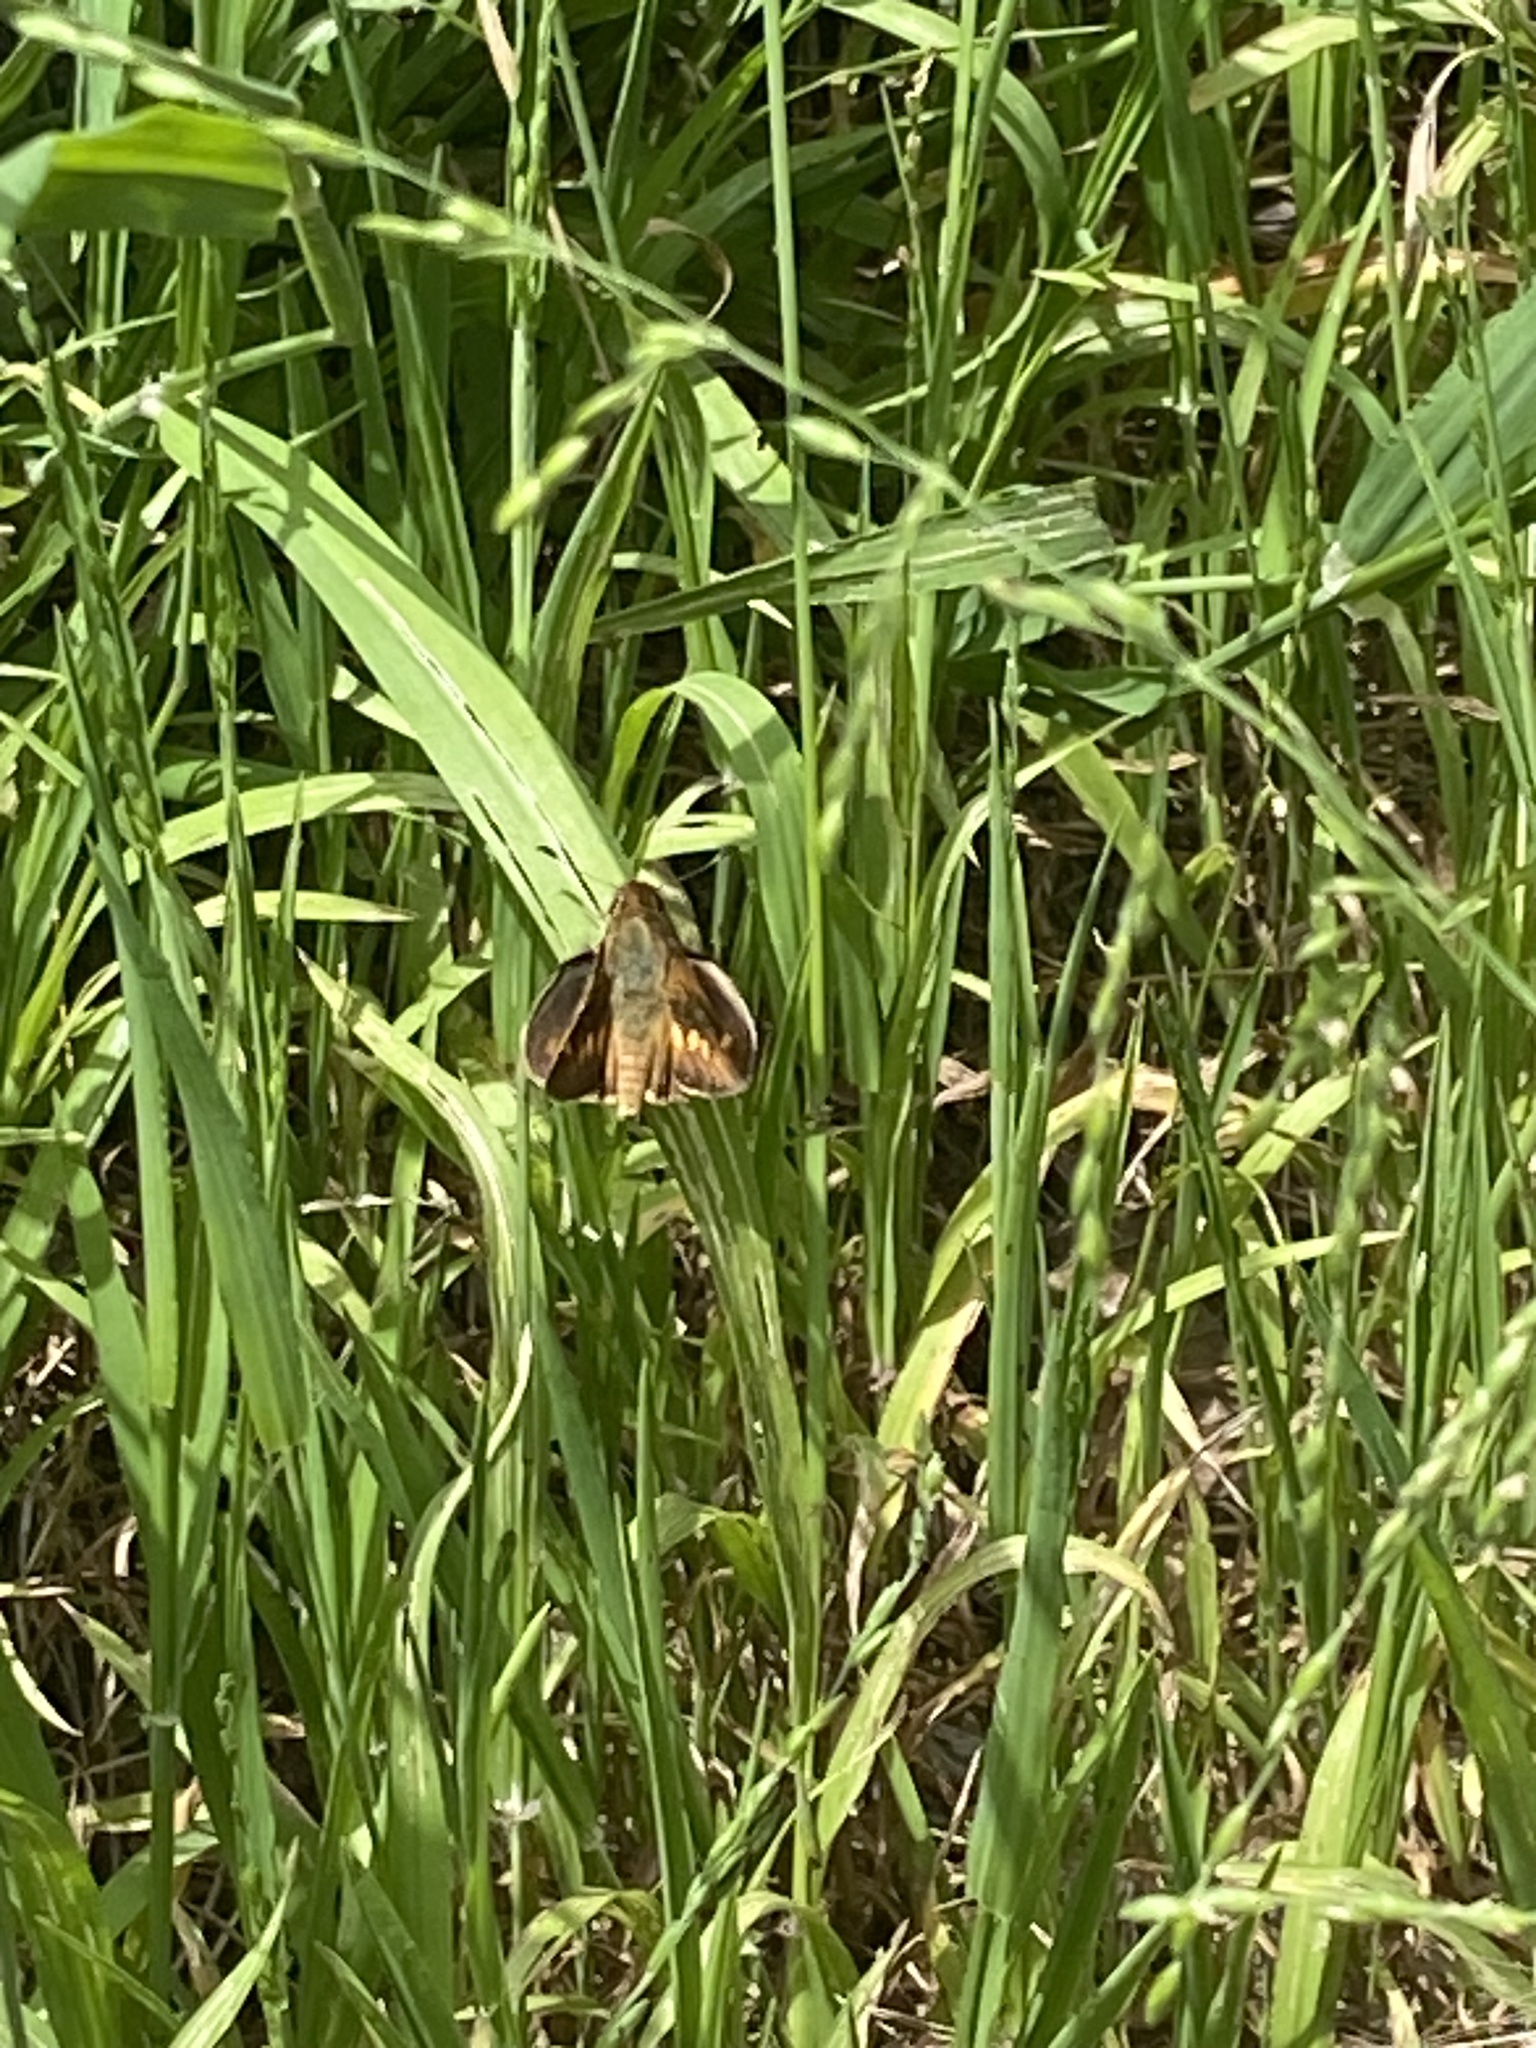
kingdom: Animalia
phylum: Arthropoda
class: Insecta
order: Lepidoptera
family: Hesperiidae
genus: Lon
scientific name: Lon melane
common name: Umber skipper
